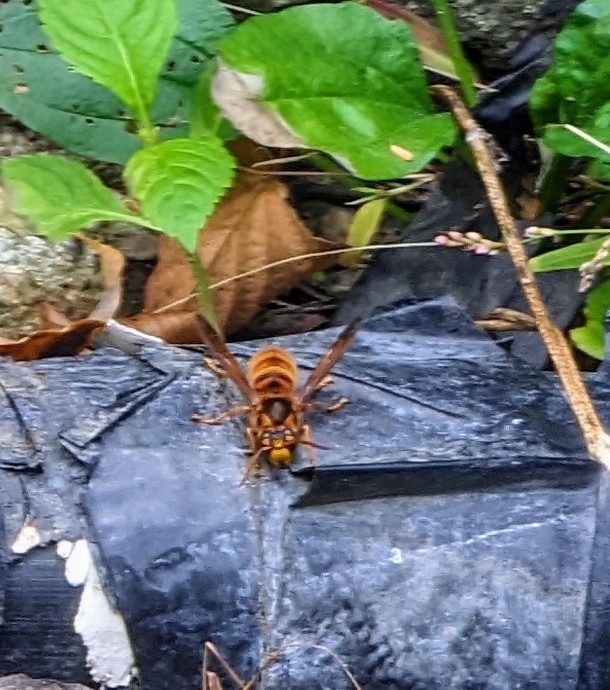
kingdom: Animalia
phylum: Arthropoda
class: Insecta
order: Hymenoptera
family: Vespidae
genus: Vespa
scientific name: Vespa simillima
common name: Vespid wasp
